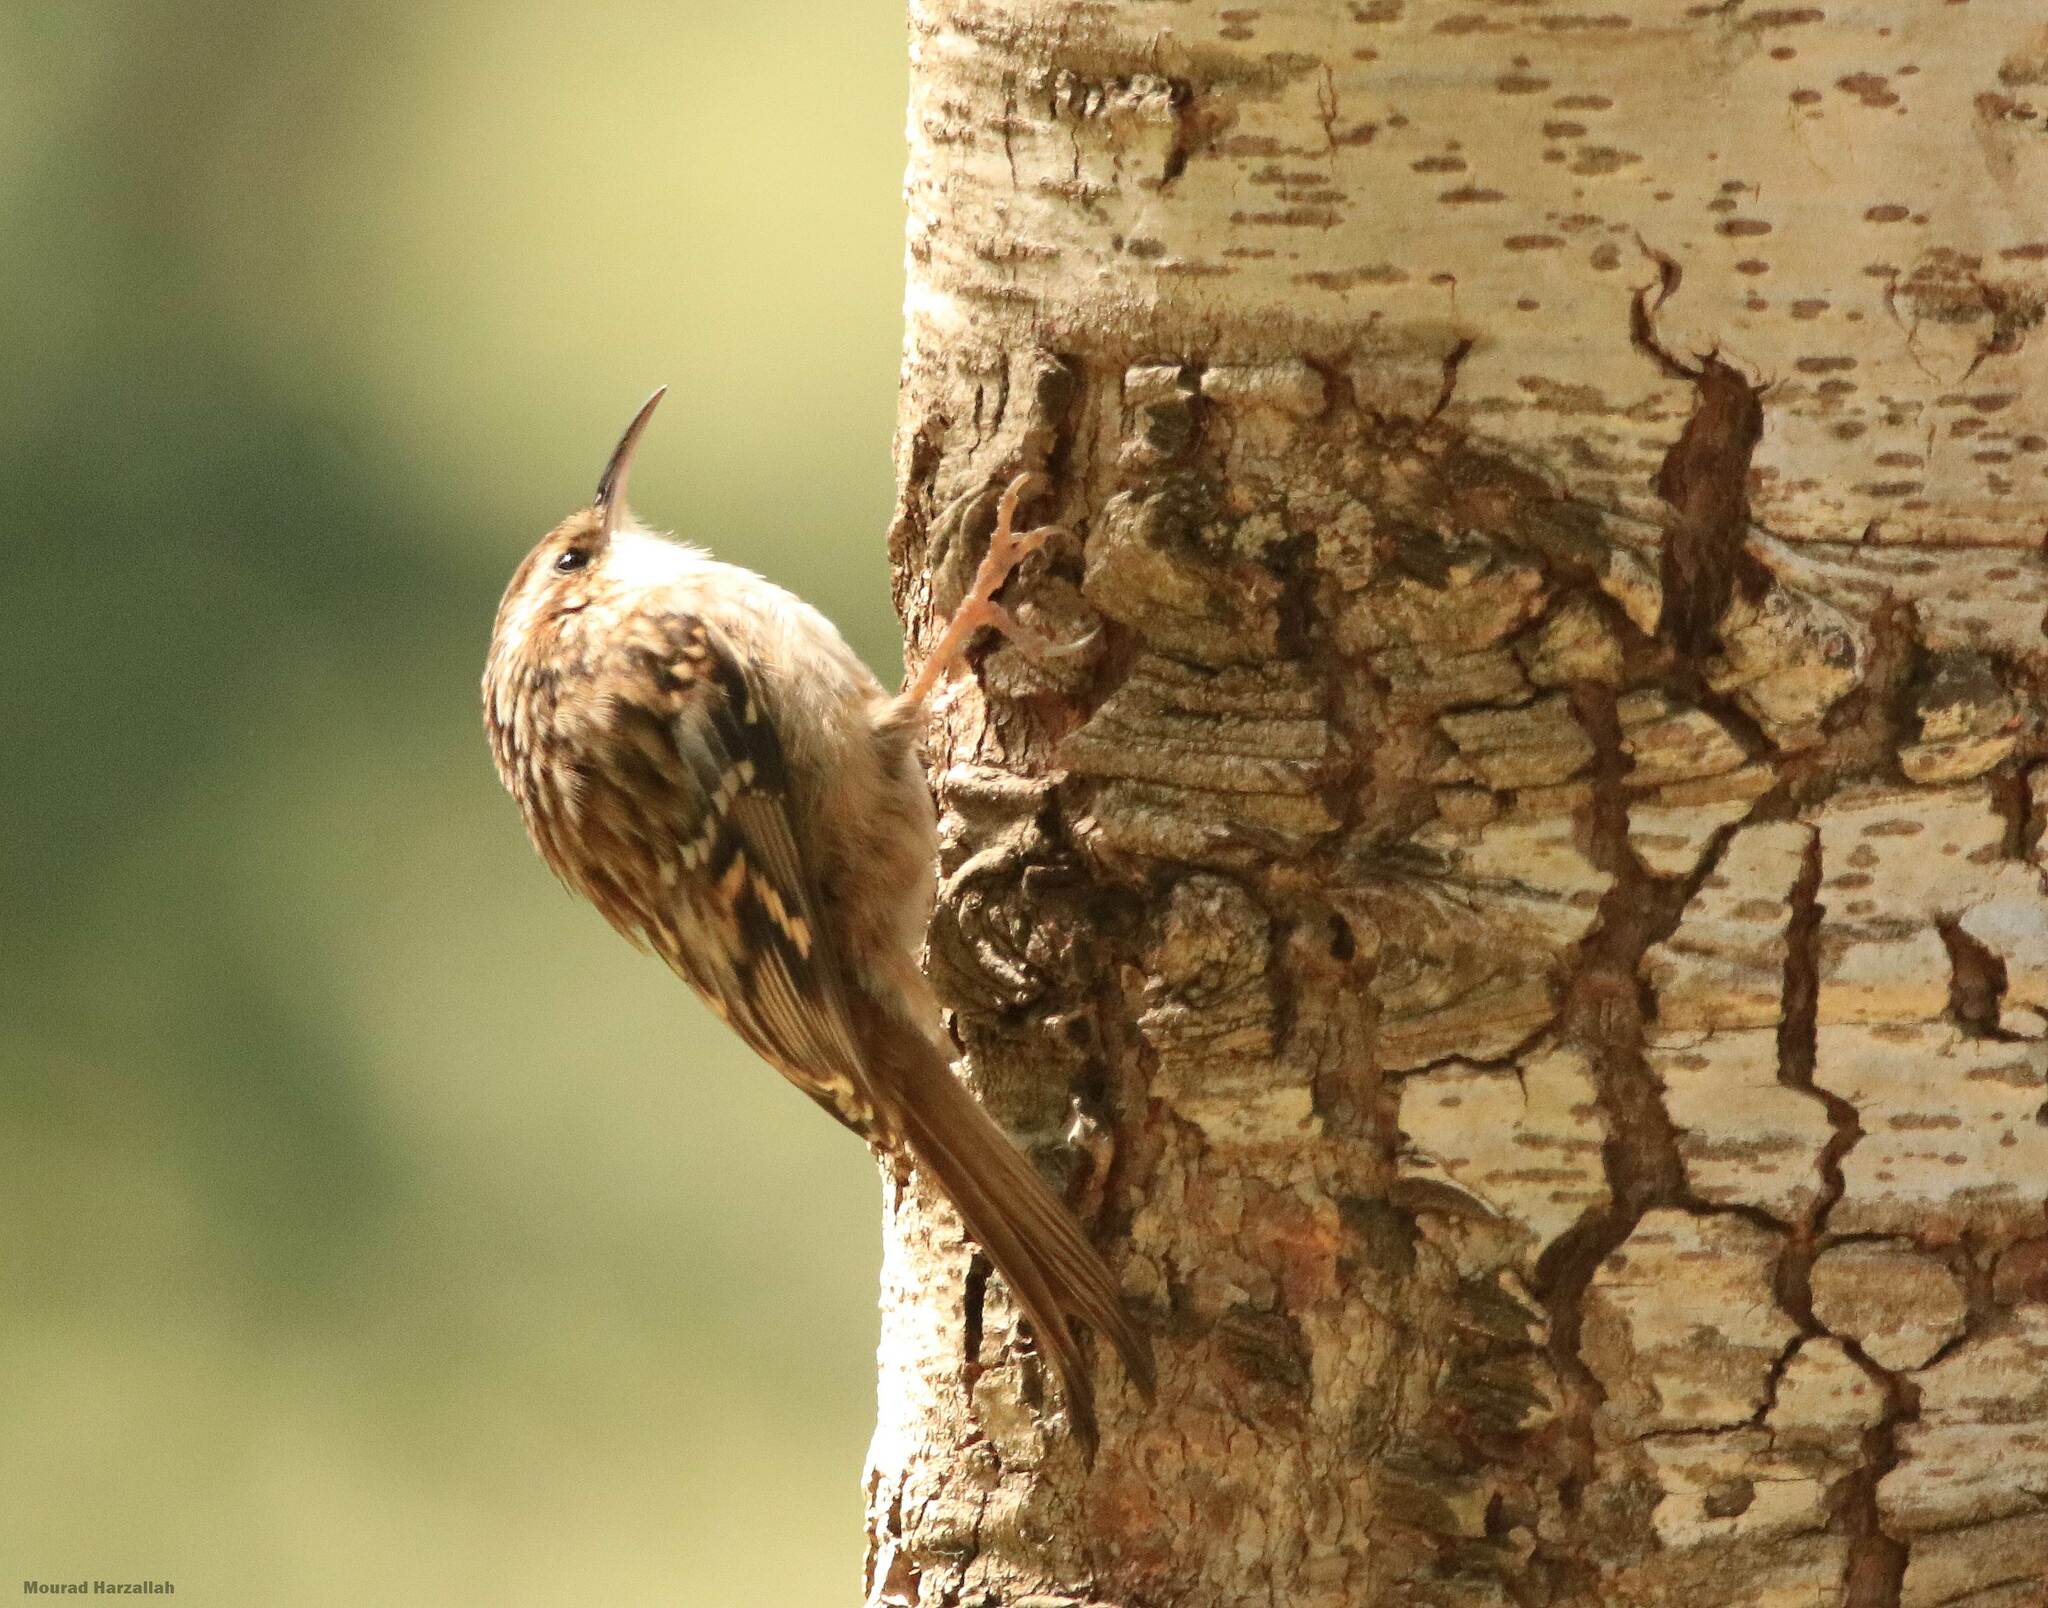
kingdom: Animalia
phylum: Chordata
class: Aves
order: Passeriformes
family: Certhiidae
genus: Certhia
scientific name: Certhia brachydactyla
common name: Short-toed treecreeper
